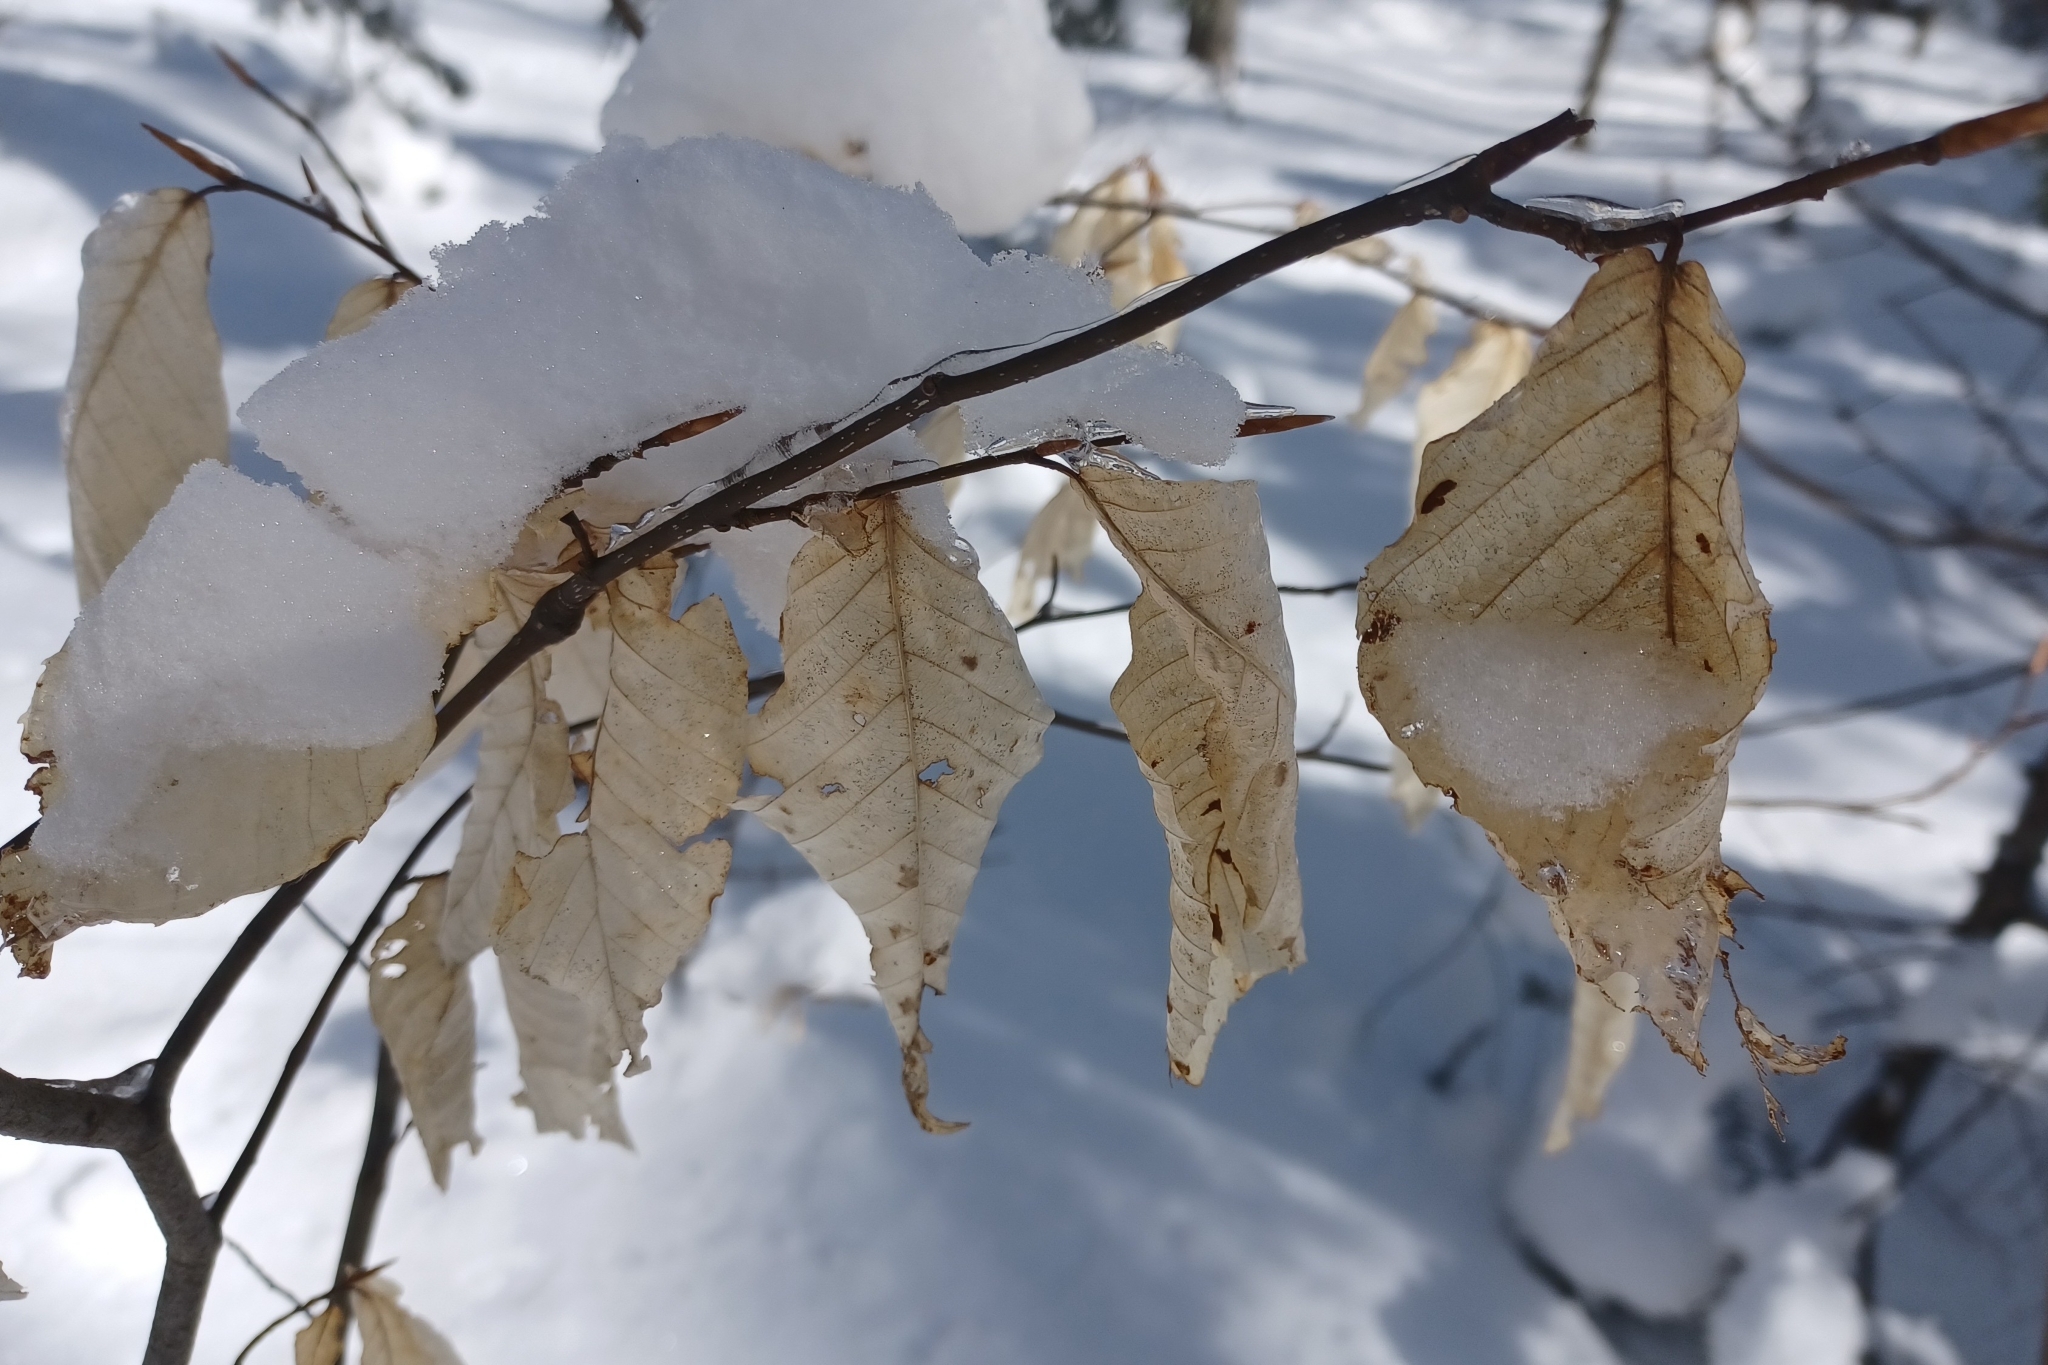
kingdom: Animalia
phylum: Arthropoda
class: Arachnida
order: Trombidiformes
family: Eriophyidae
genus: Acalitus
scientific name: Acalitus
